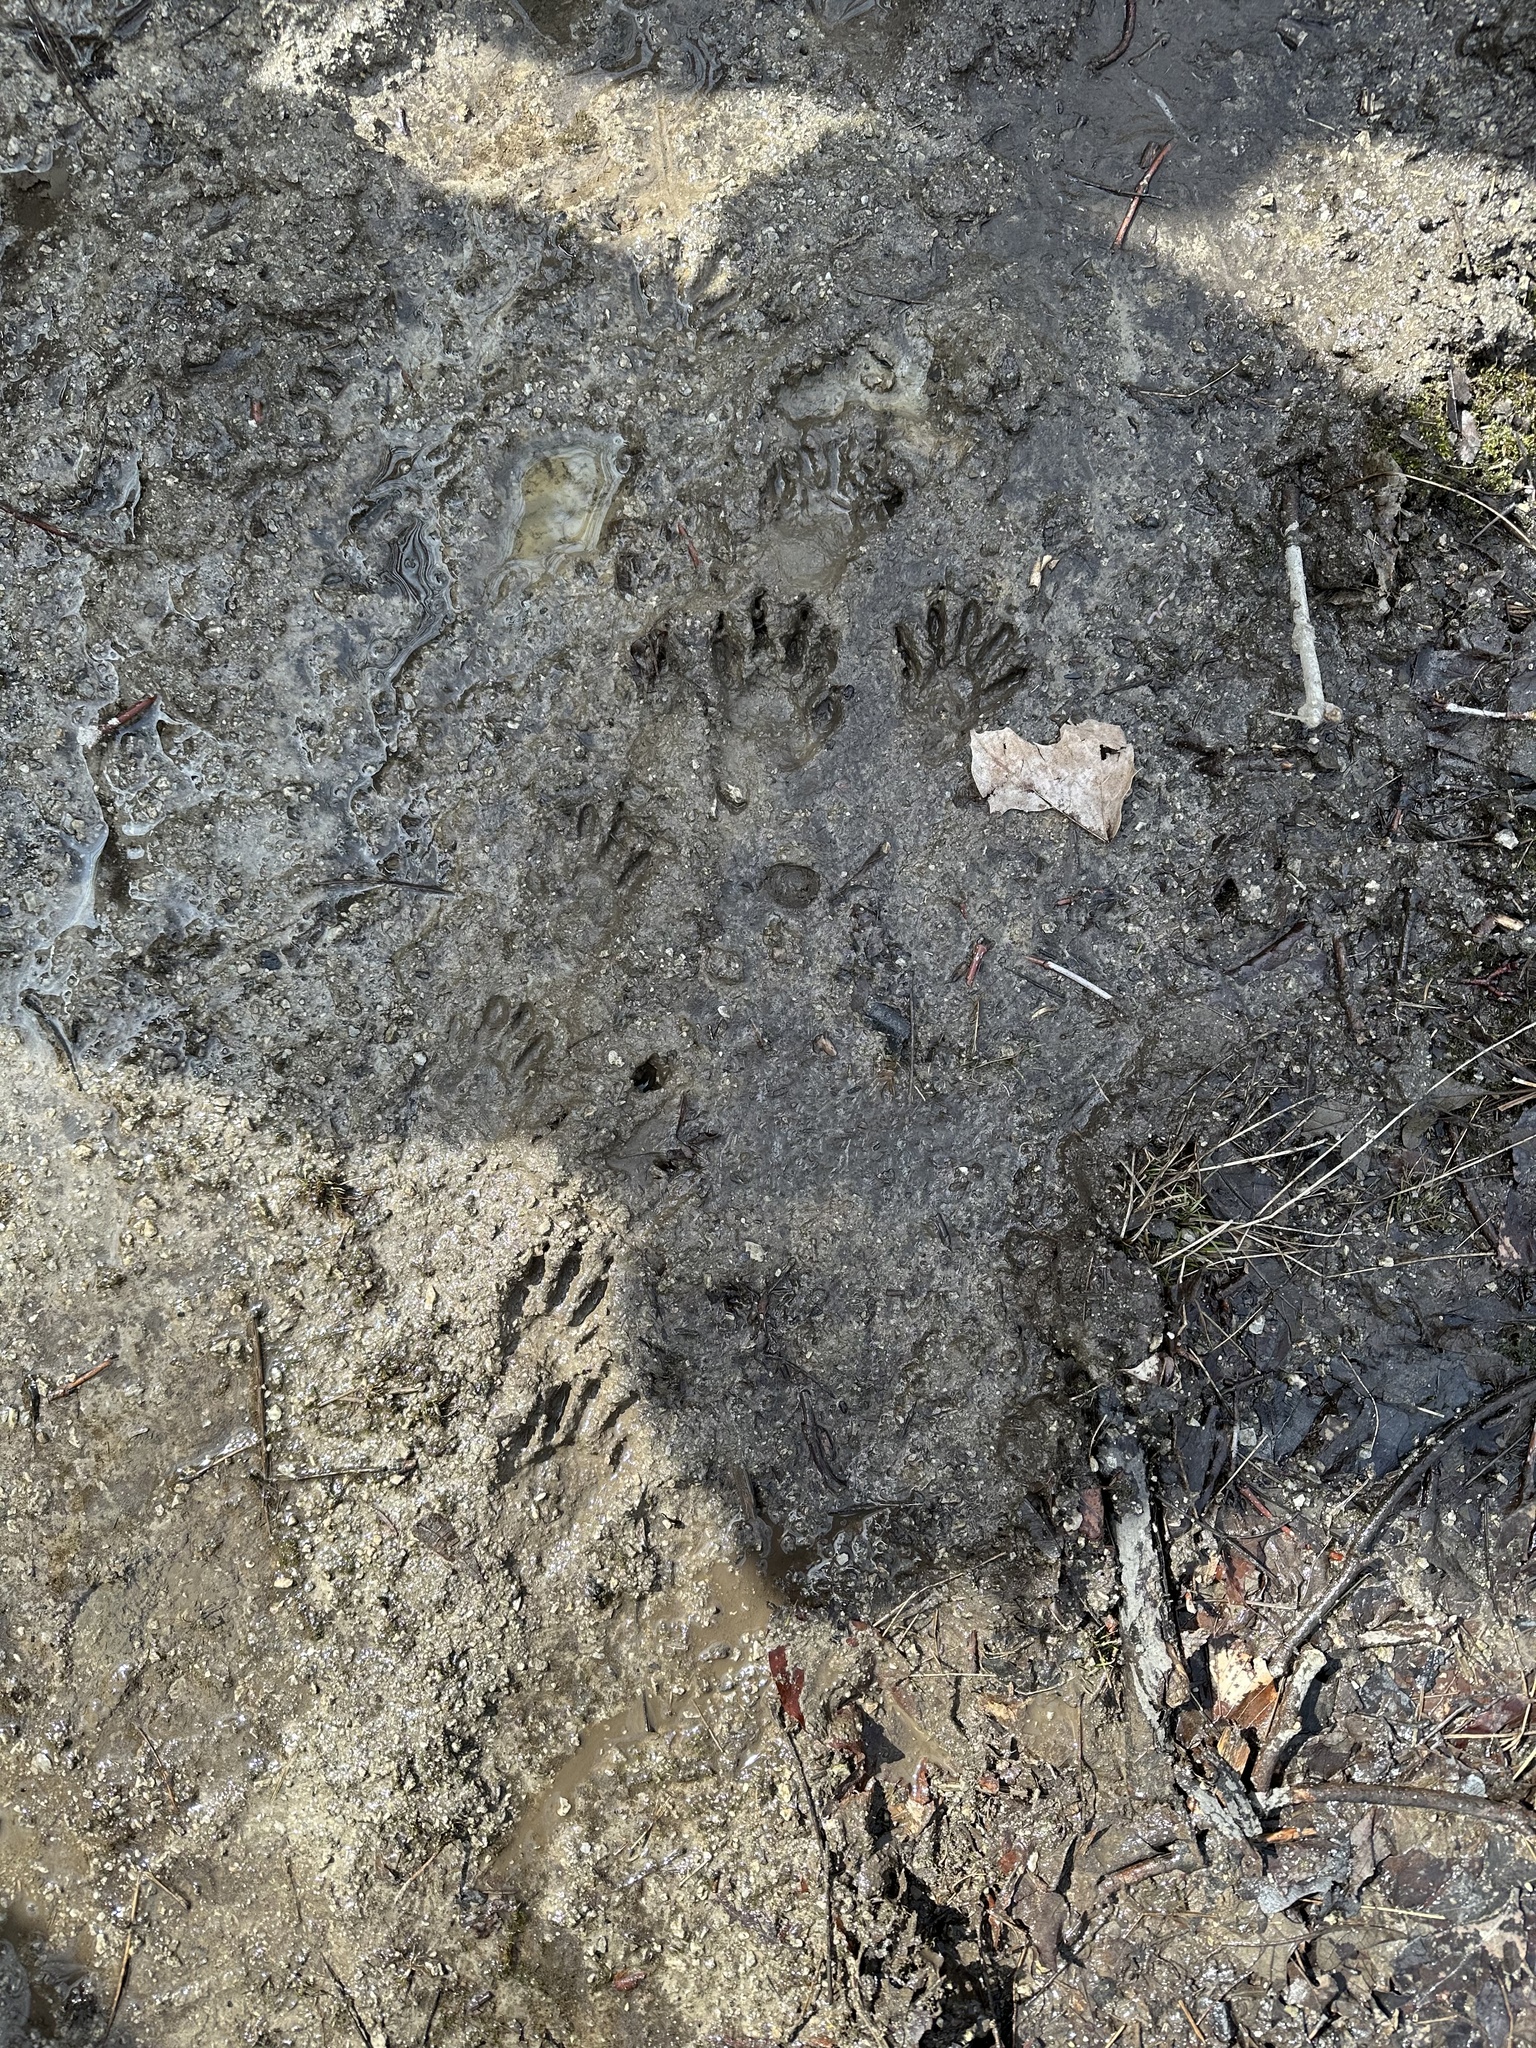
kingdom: Animalia
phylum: Chordata
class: Mammalia
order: Carnivora
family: Procyonidae
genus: Procyon
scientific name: Procyon lotor
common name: Raccoon
